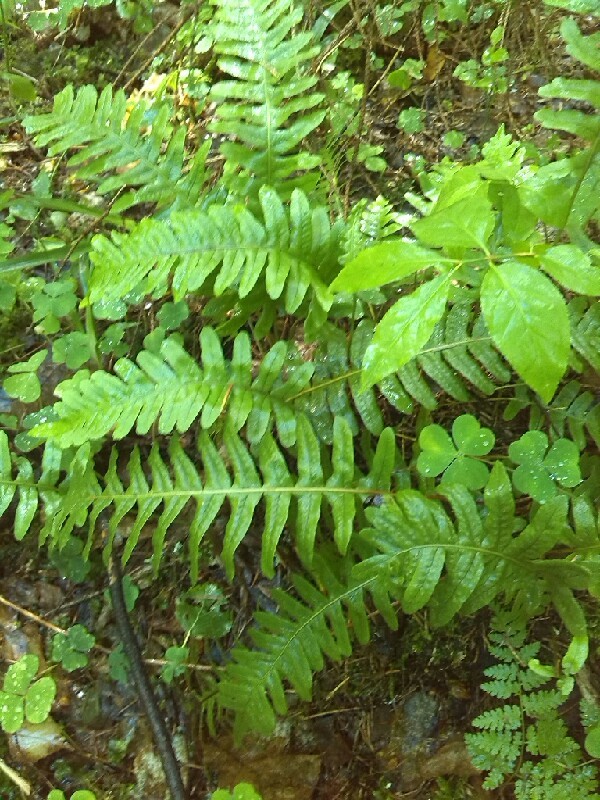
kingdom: Plantae
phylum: Tracheophyta
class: Polypodiopsida
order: Polypodiales
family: Polypodiaceae
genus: Polypodium
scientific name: Polypodium vulgare
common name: Common polypody
